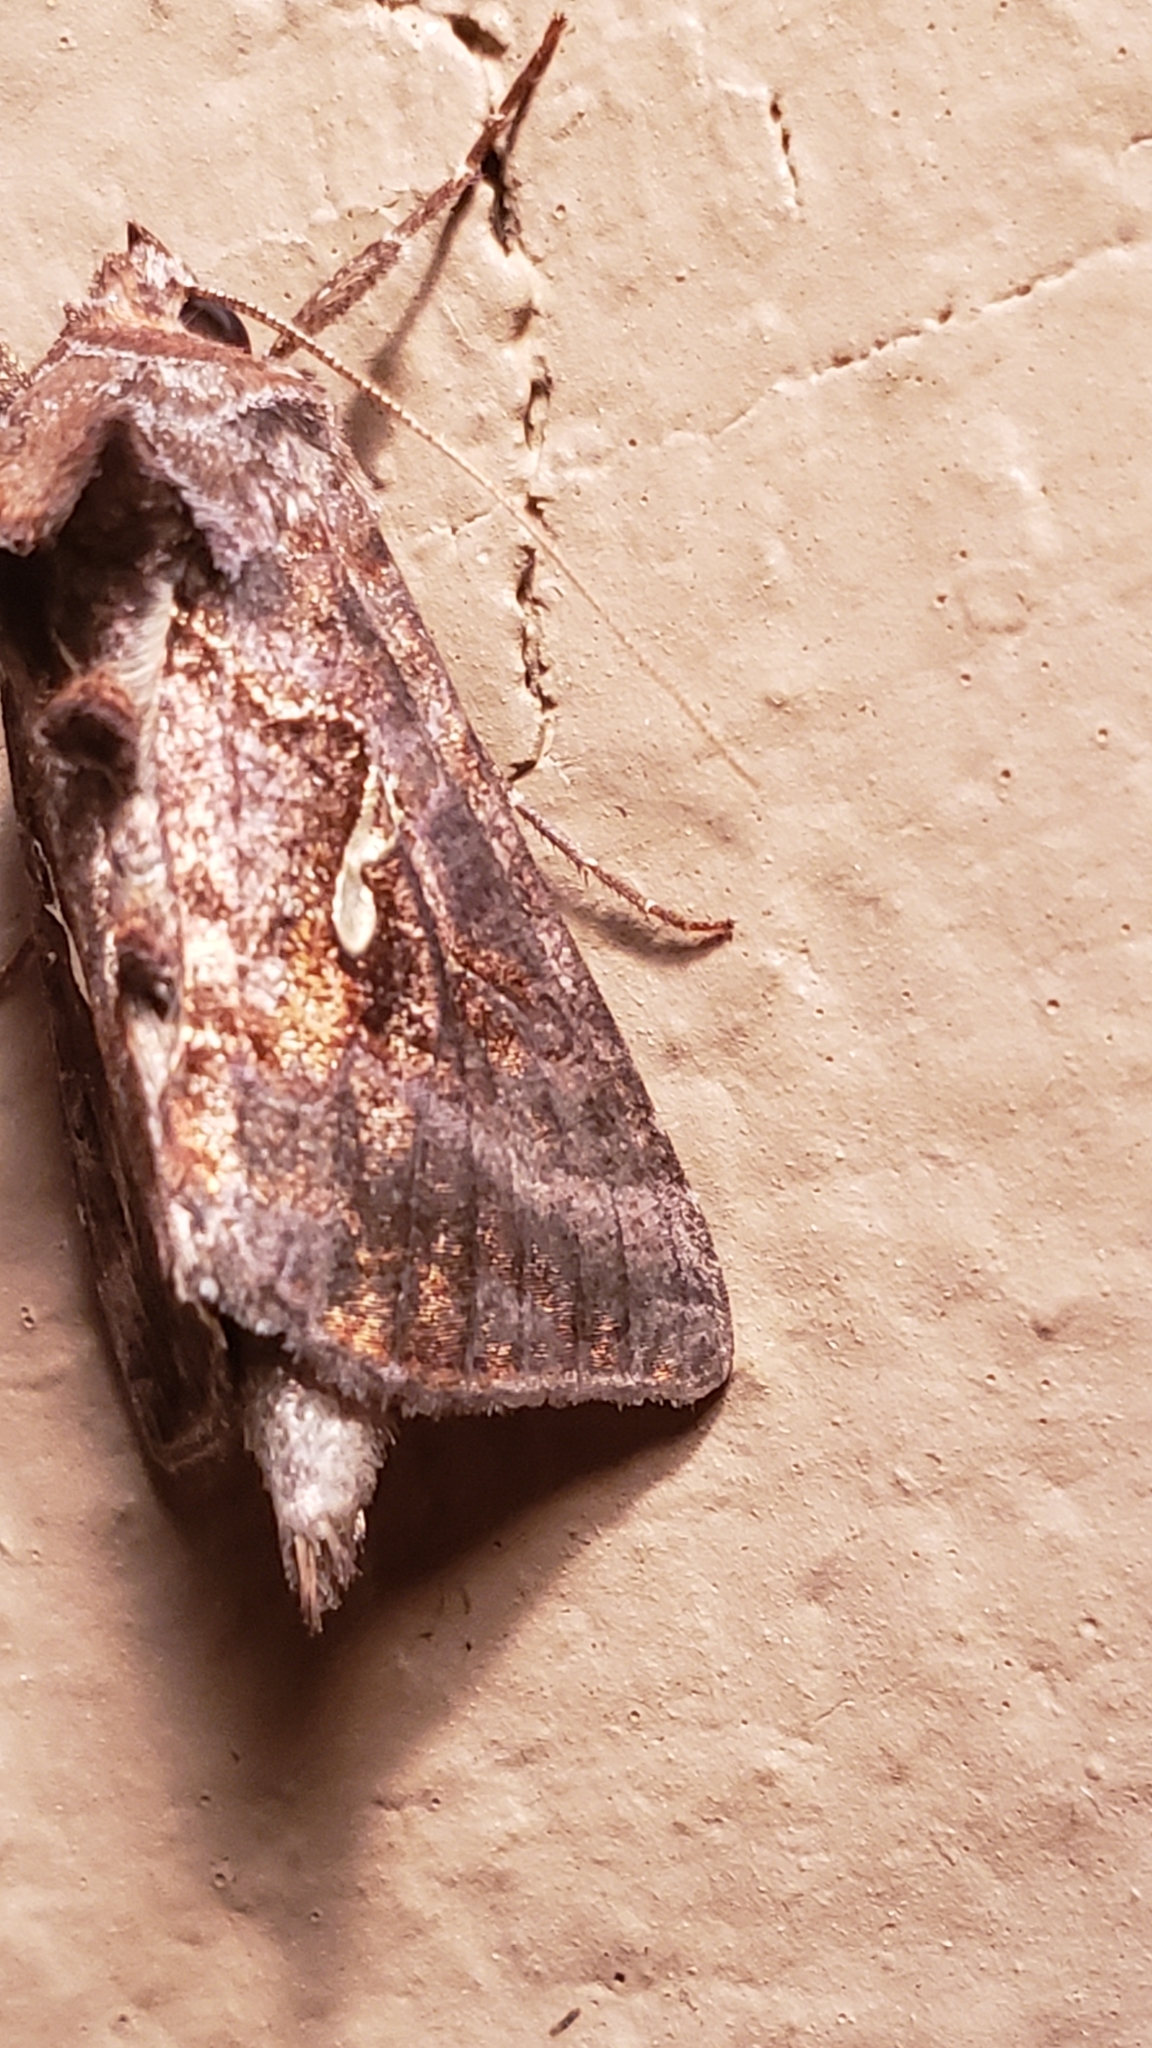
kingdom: Animalia
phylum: Arthropoda
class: Insecta
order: Lepidoptera
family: Noctuidae
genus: Autographa
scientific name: Autographa precationis
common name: Common looper moth
